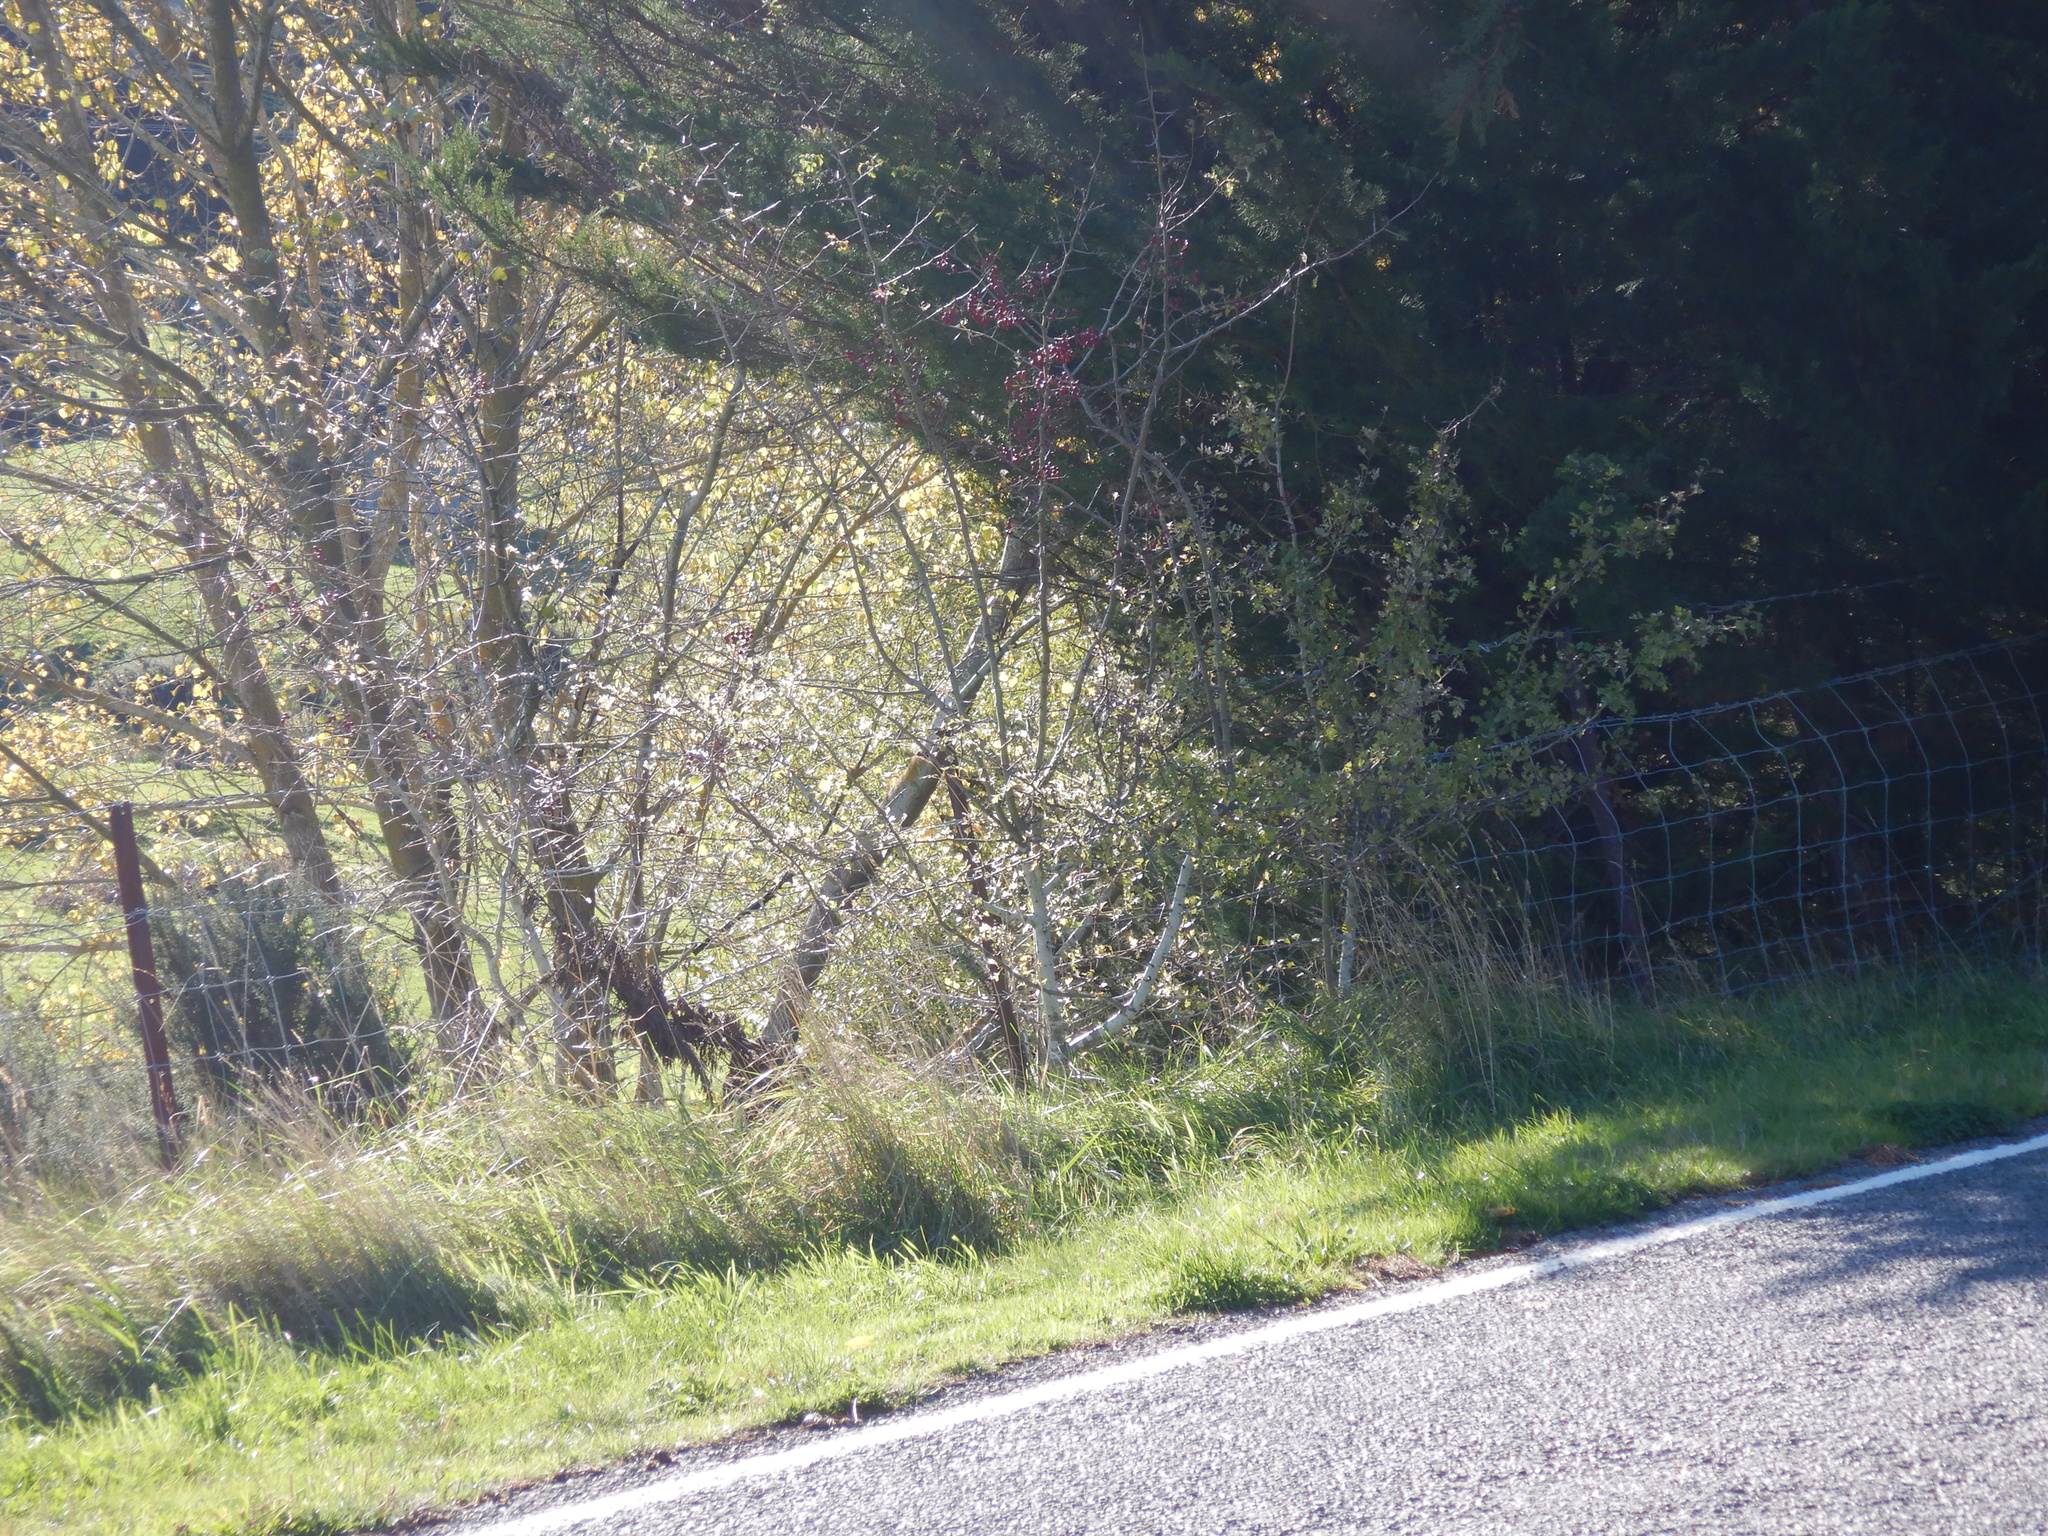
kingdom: Plantae
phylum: Tracheophyta
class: Magnoliopsida
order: Rosales
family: Rosaceae
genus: Crataegus
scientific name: Crataegus monogyna
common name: Hawthorn
